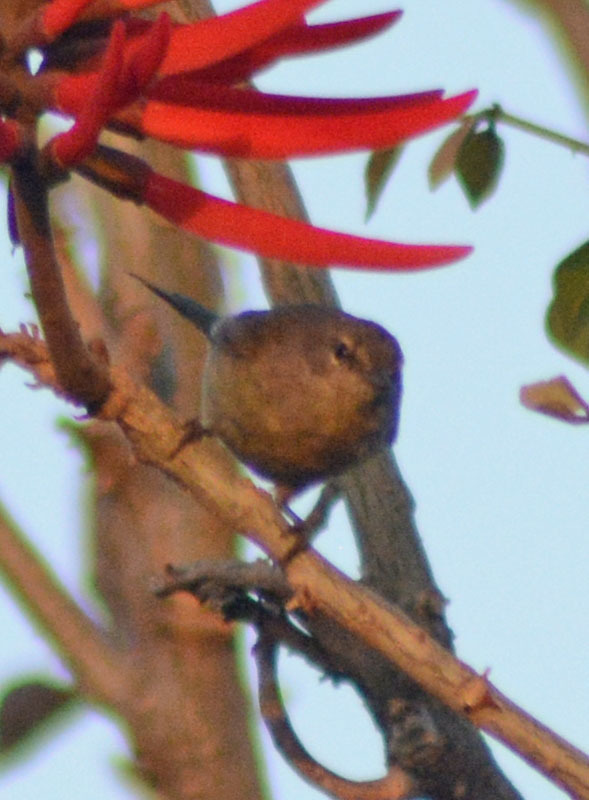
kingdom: Animalia
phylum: Chordata
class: Aves
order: Passeriformes
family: Parulidae
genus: Leiothlypis
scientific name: Leiothlypis celata
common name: Orange-crowned warbler
